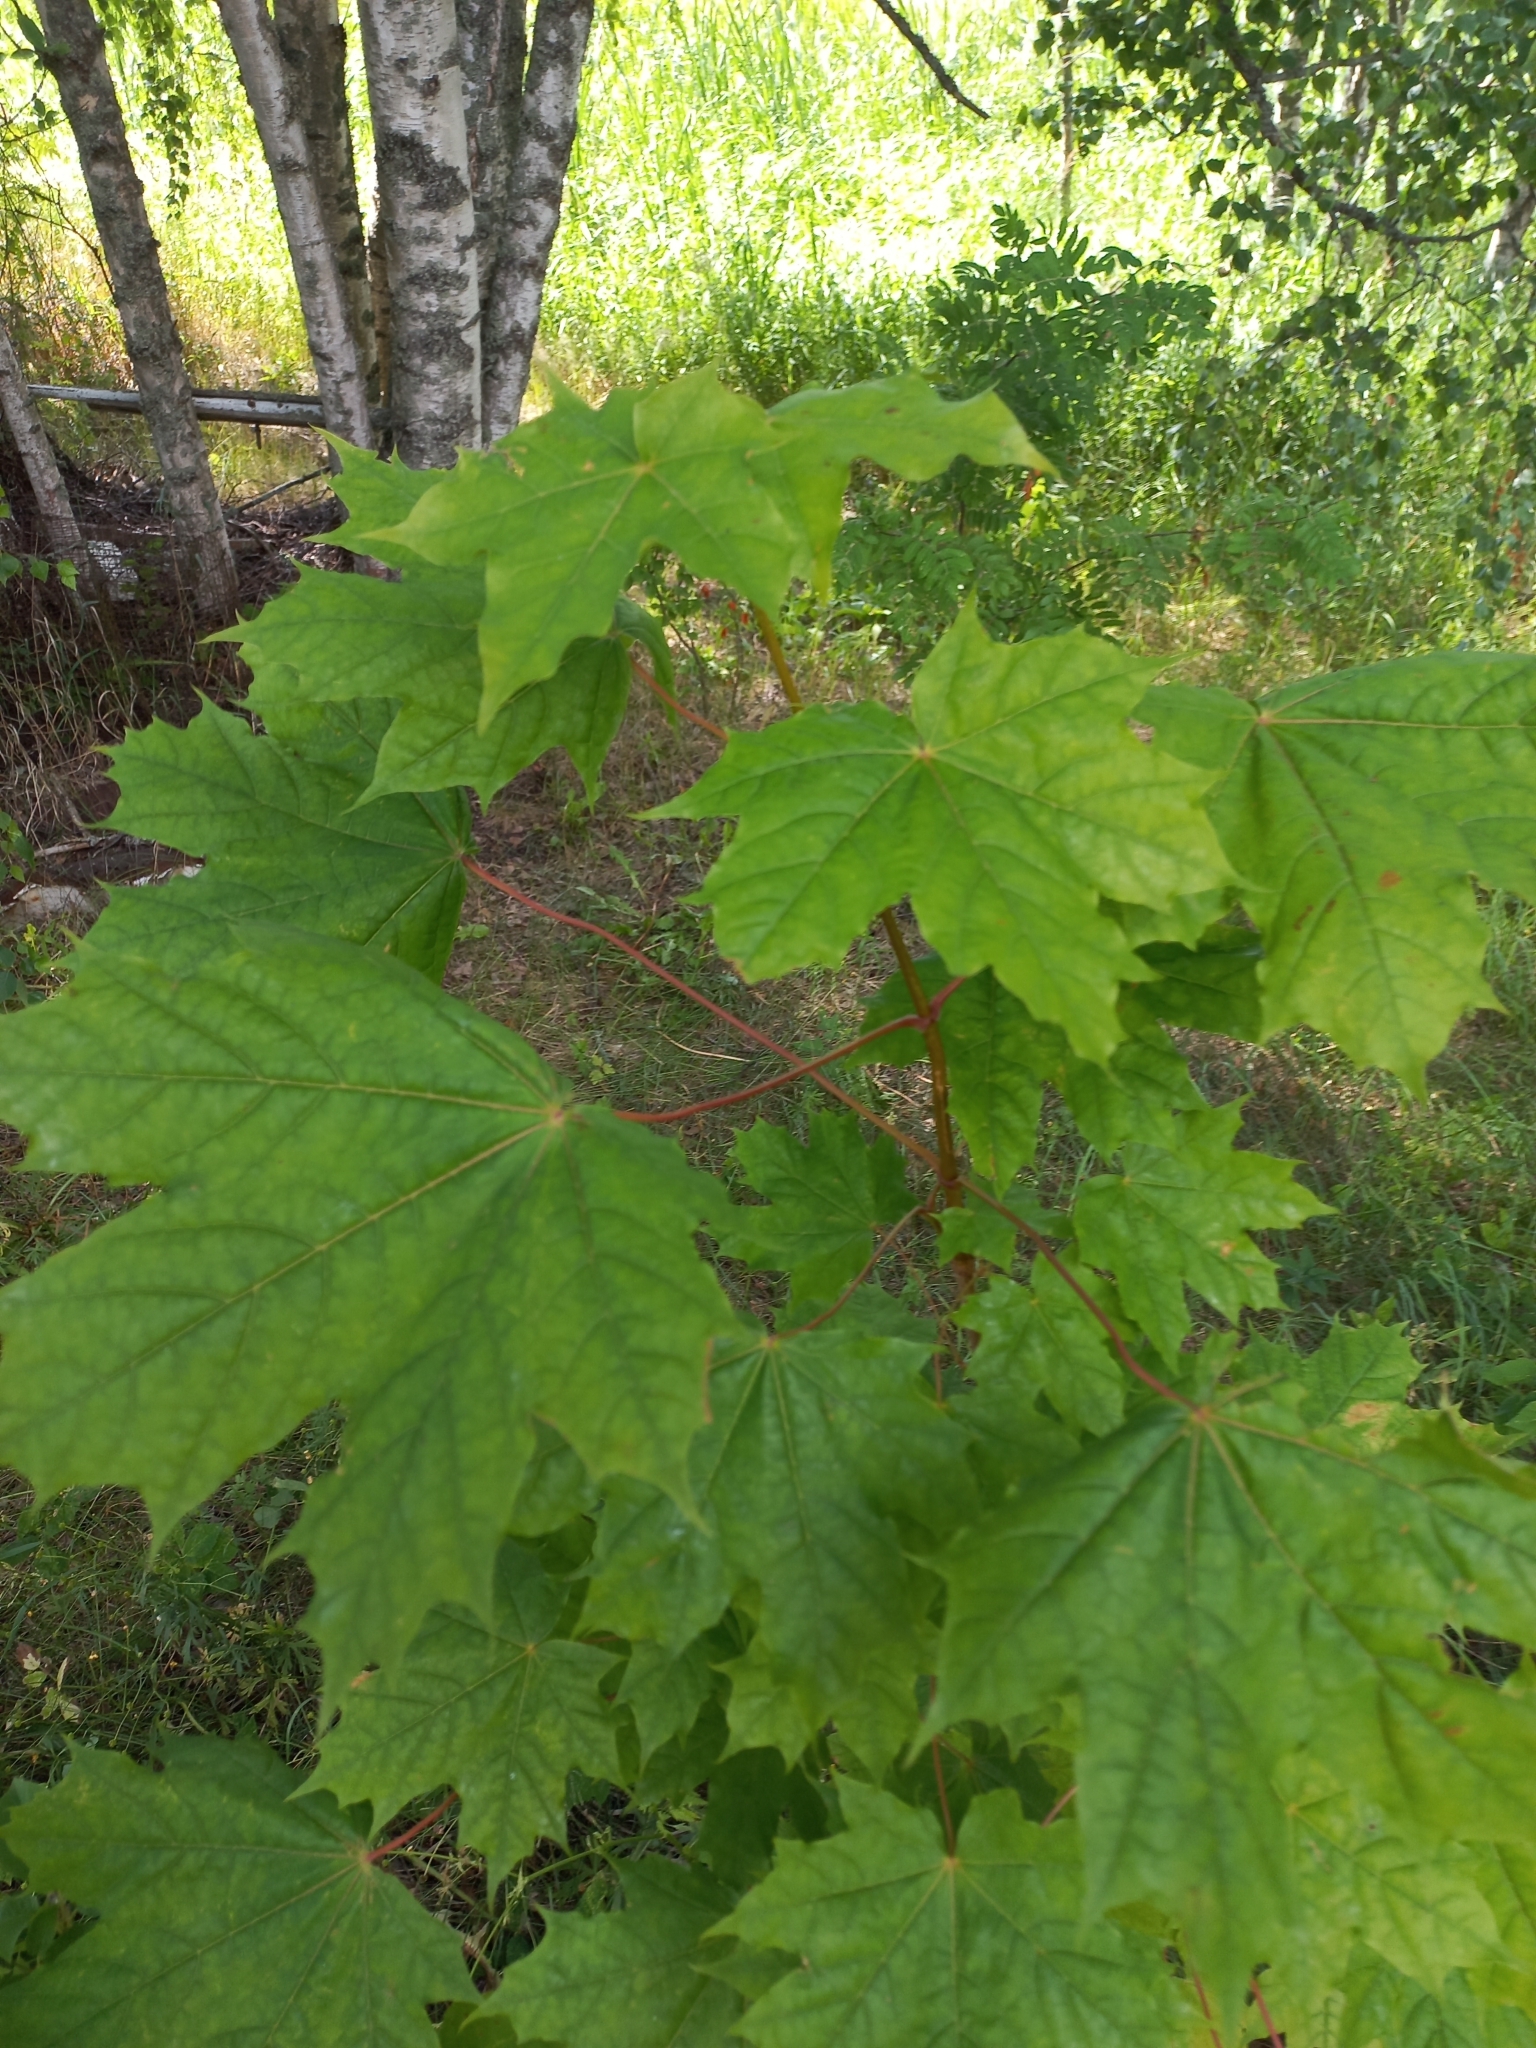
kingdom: Plantae
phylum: Tracheophyta
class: Magnoliopsida
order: Sapindales
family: Sapindaceae
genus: Acer
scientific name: Acer platanoides
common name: Norway maple
